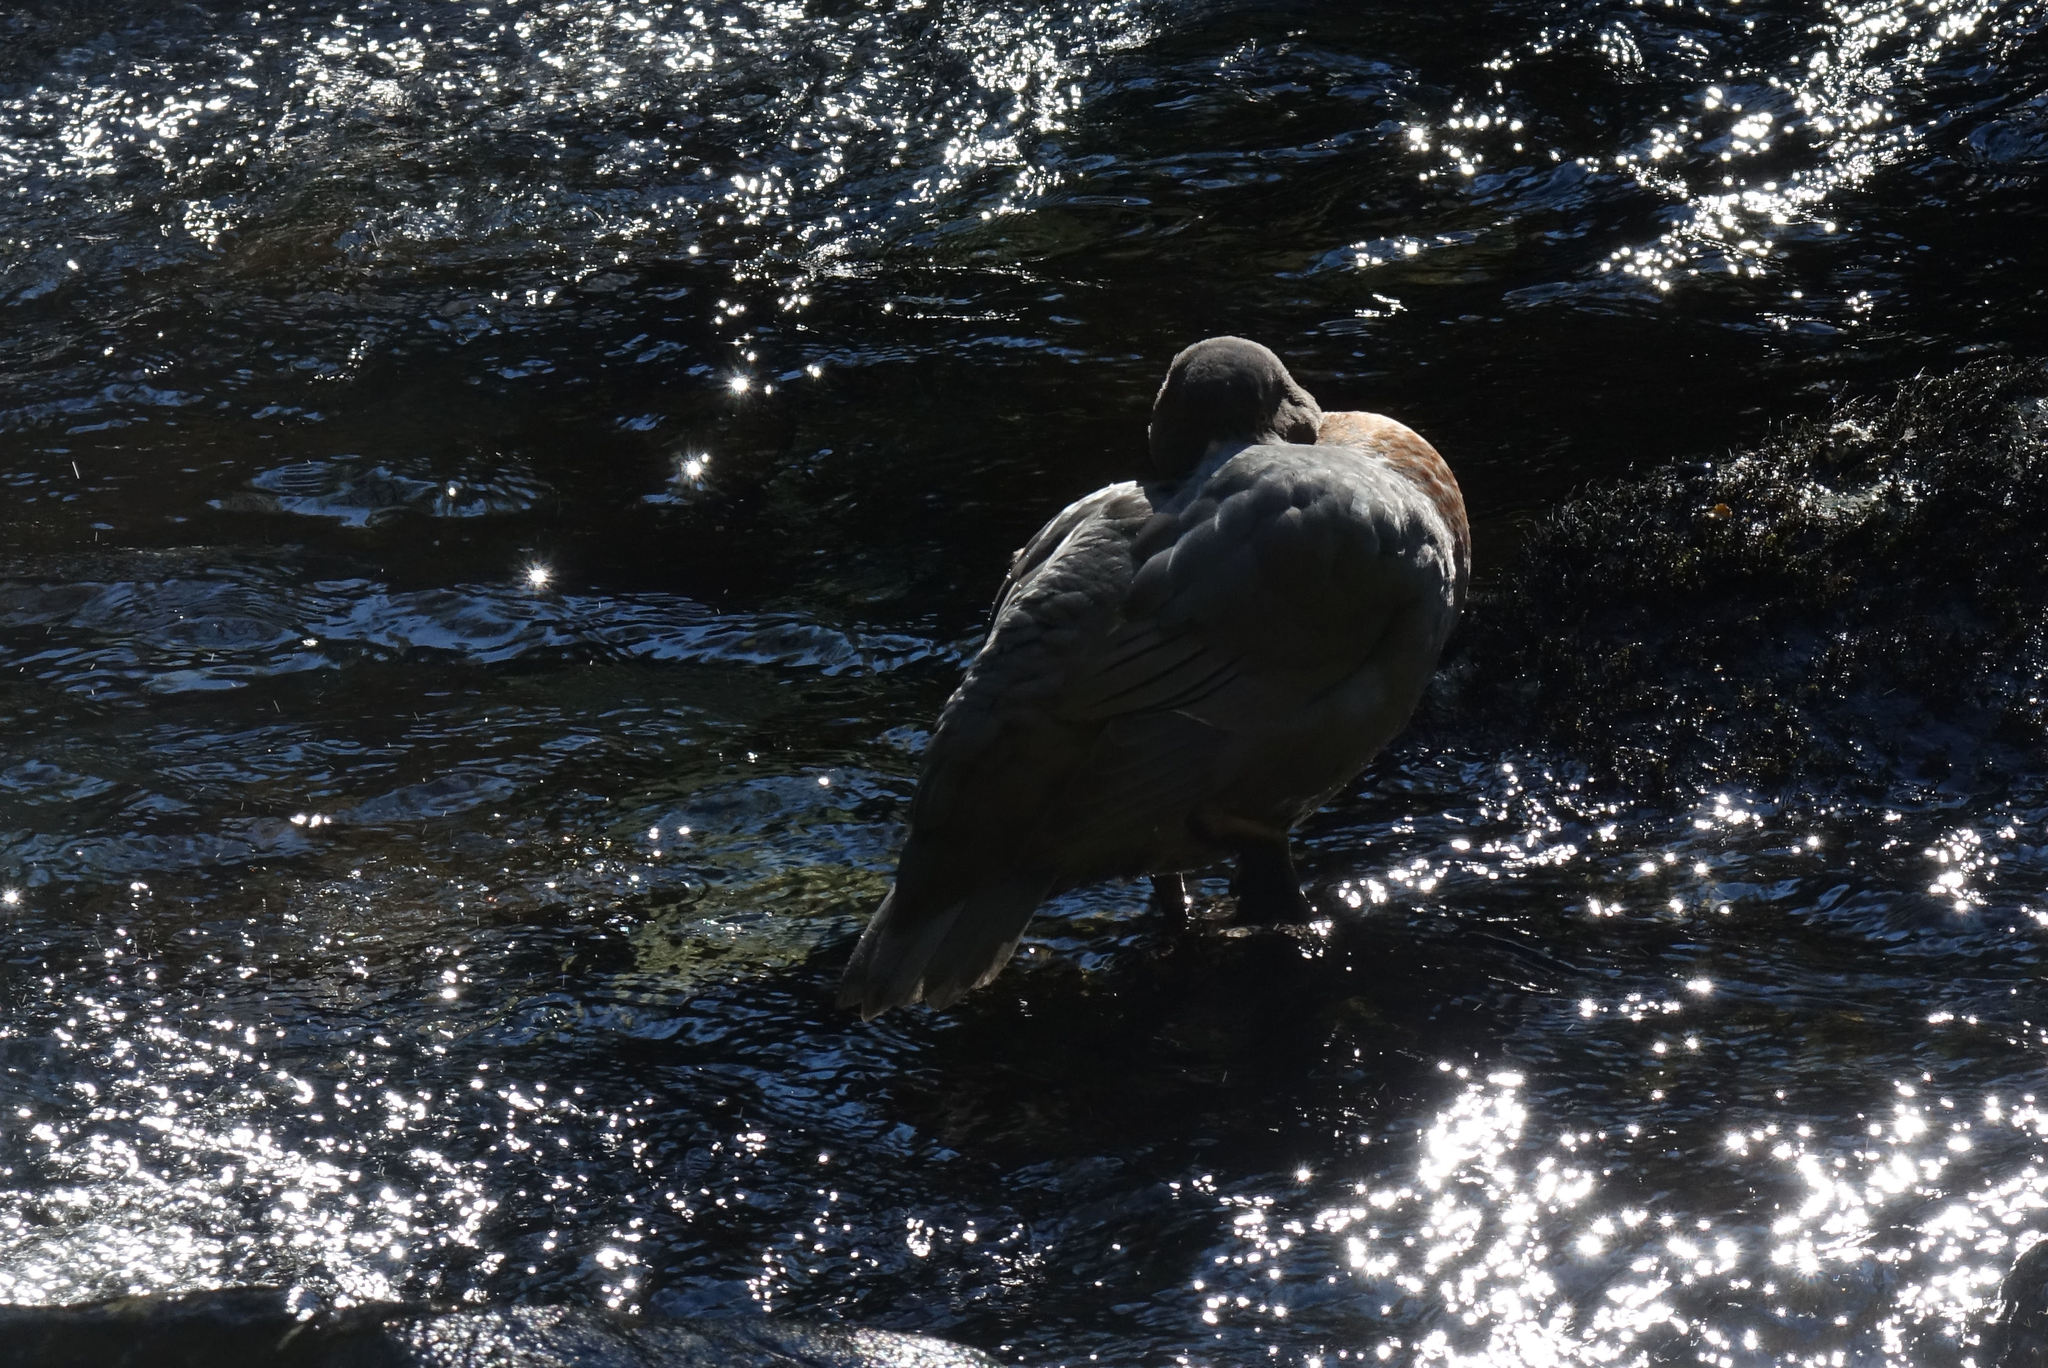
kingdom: Animalia
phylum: Chordata
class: Aves
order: Anseriformes
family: Anatidae
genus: Hymenolaimus
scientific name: Hymenolaimus malacorhynchos
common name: Blue duck
